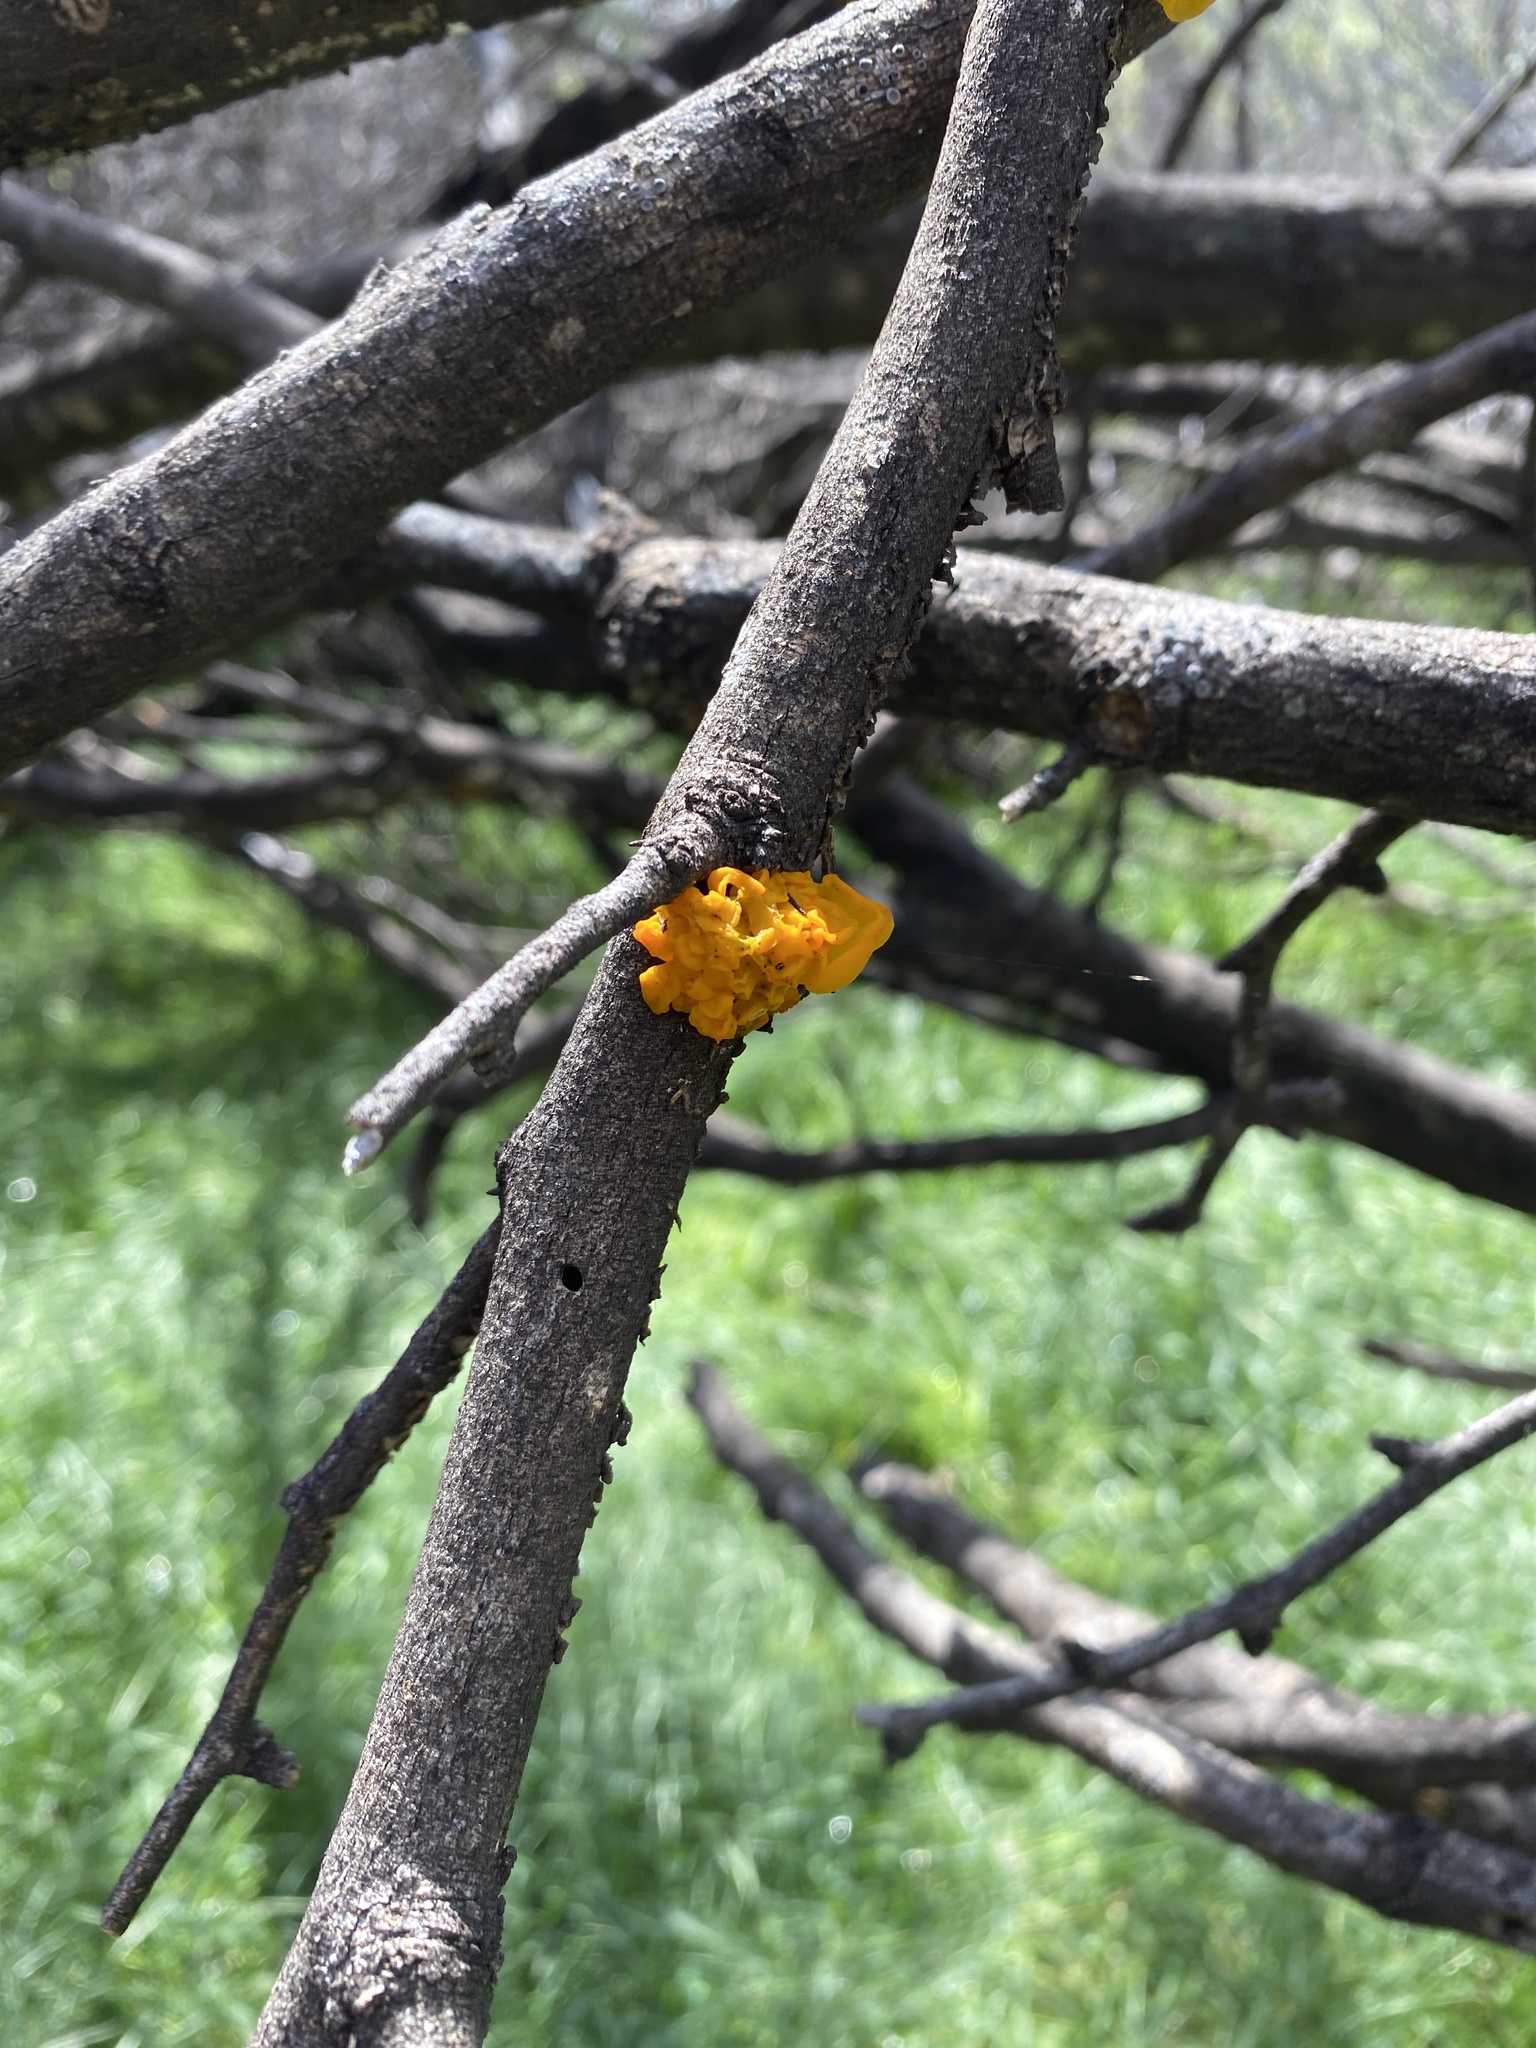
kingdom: Fungi
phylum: Basidiomycota
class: Tremellomycetes
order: Tremellales
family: Tremellaceae
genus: Tremella
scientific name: Tremella mesenterica
